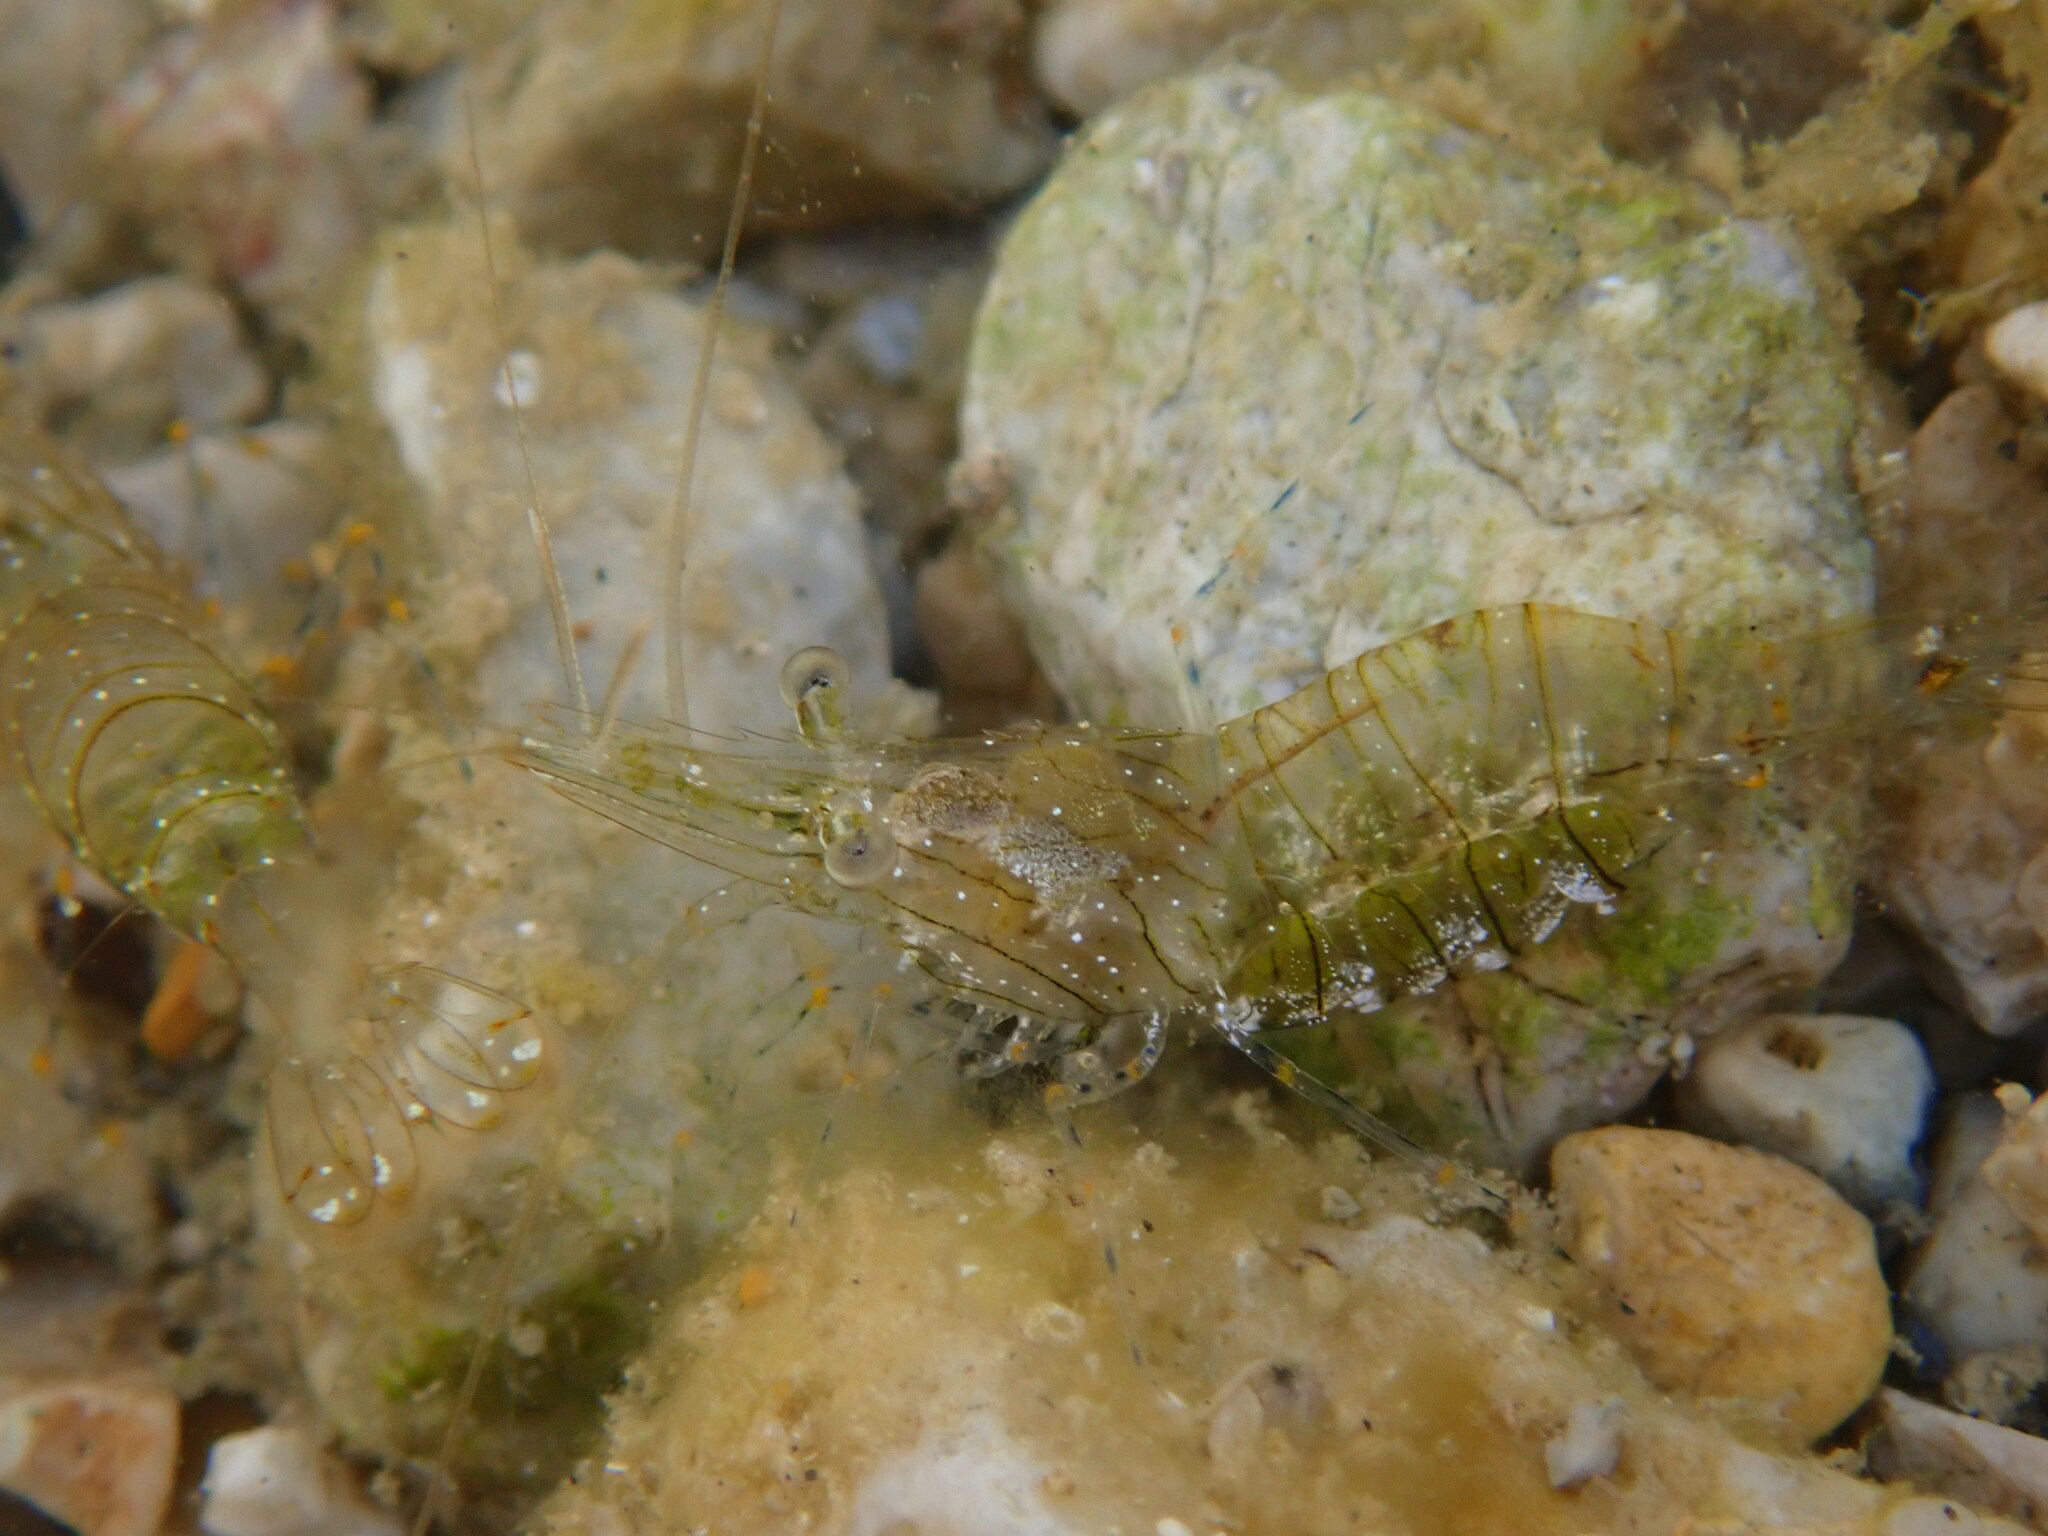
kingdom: Animalia
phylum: Arthropoda
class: Malacostraca
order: Decapoda
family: Palaemonidae
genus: Palaemon
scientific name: Palaemon elegans
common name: Grass prawm
